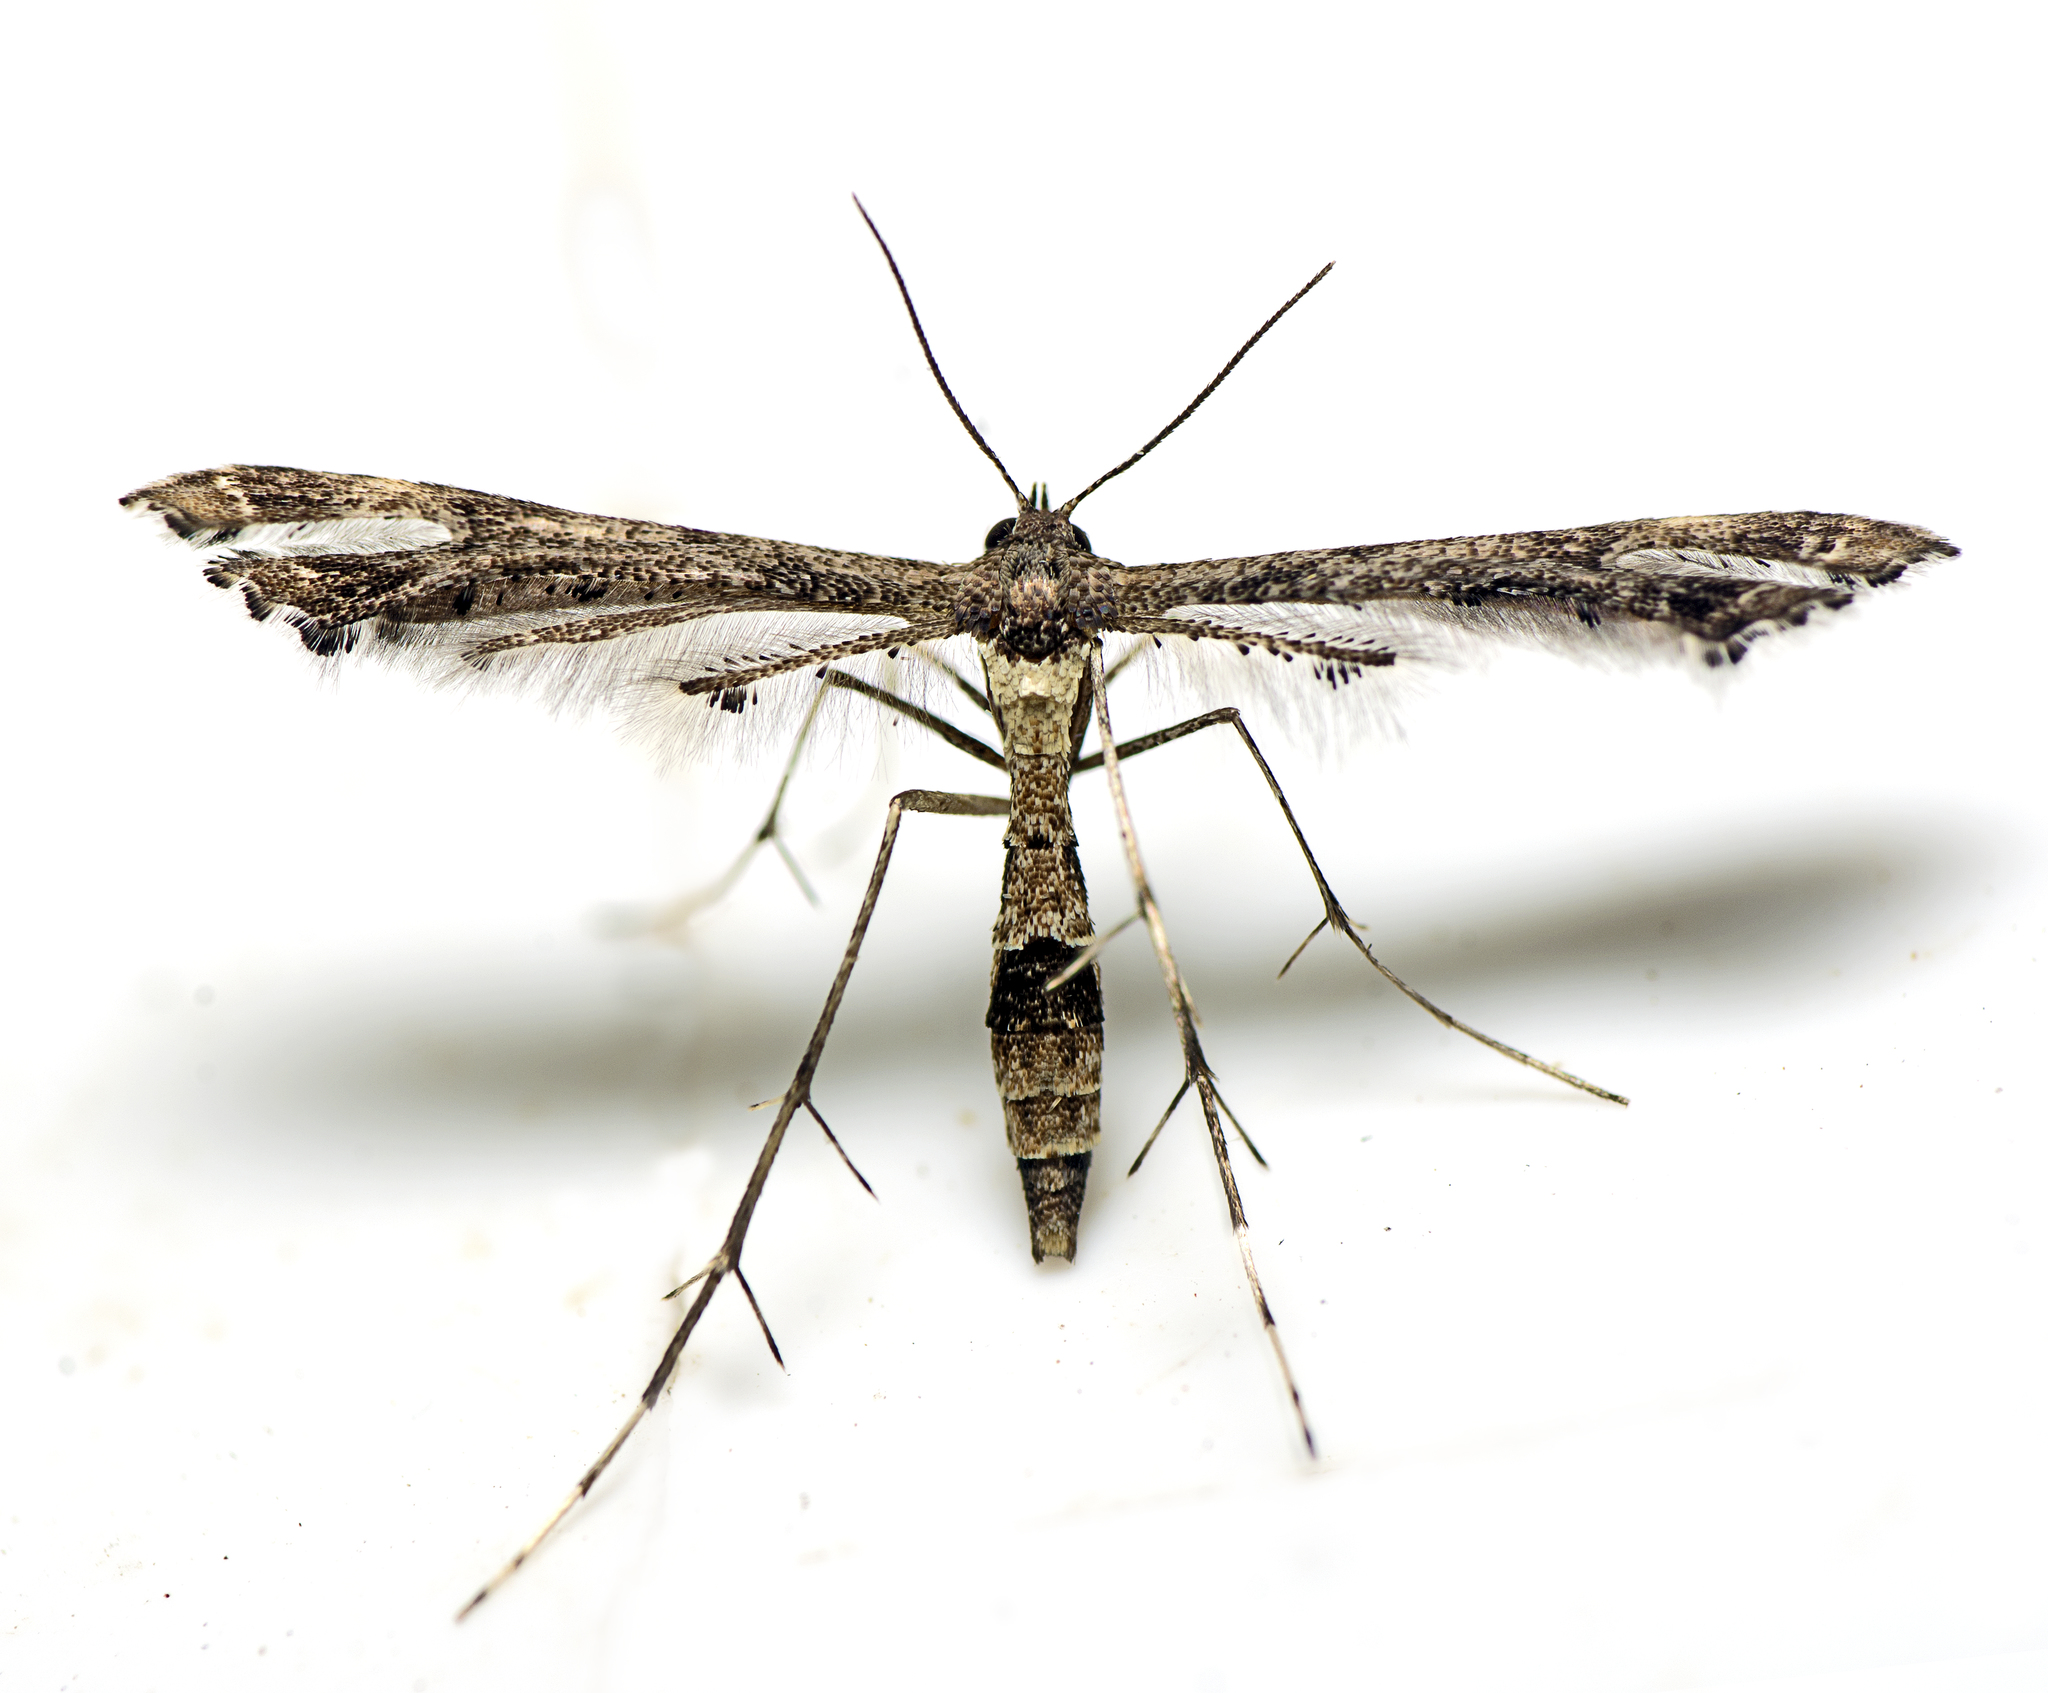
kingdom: Animalia
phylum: Arthropoda
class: Insecta
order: Lepidoptera
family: Pterophoridae
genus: Lantanophaga
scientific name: Lantanophaga pusillidactylus
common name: Moth
